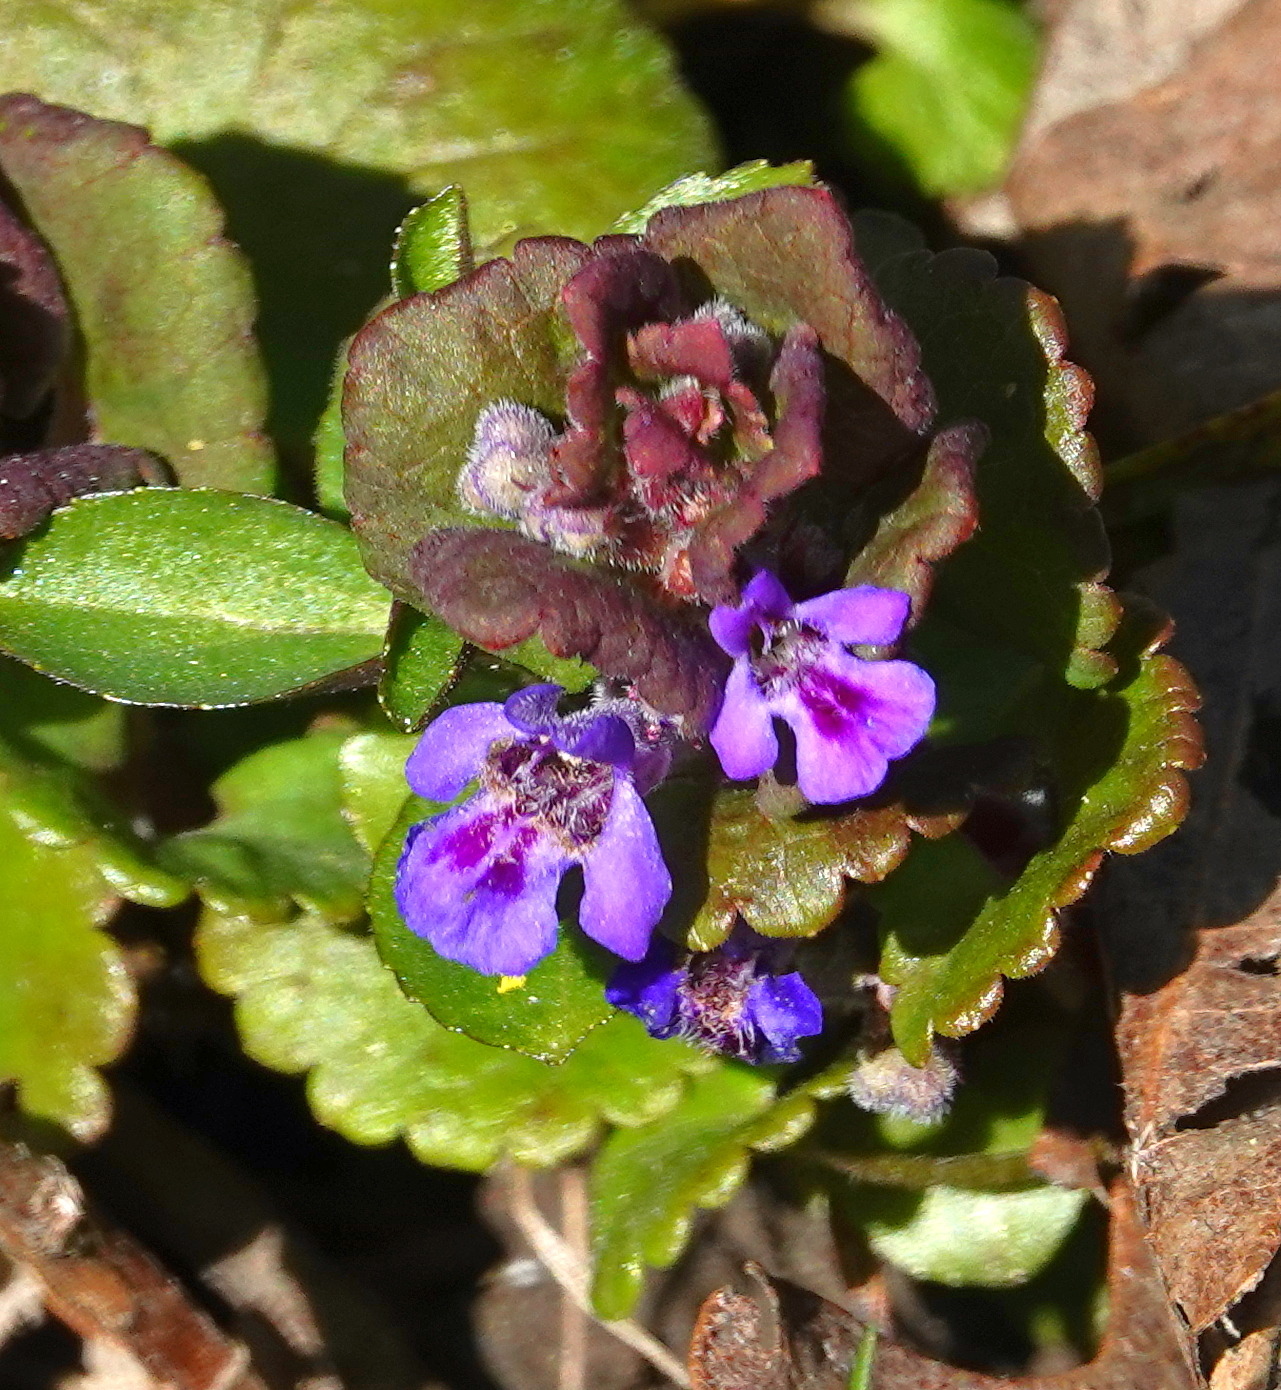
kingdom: Plantae
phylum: Tracheophyta
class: Magnoliopsida
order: Lamiales
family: Lamiaceae
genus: Glechoma
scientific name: Glechoma hederacea
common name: Ground ivy
